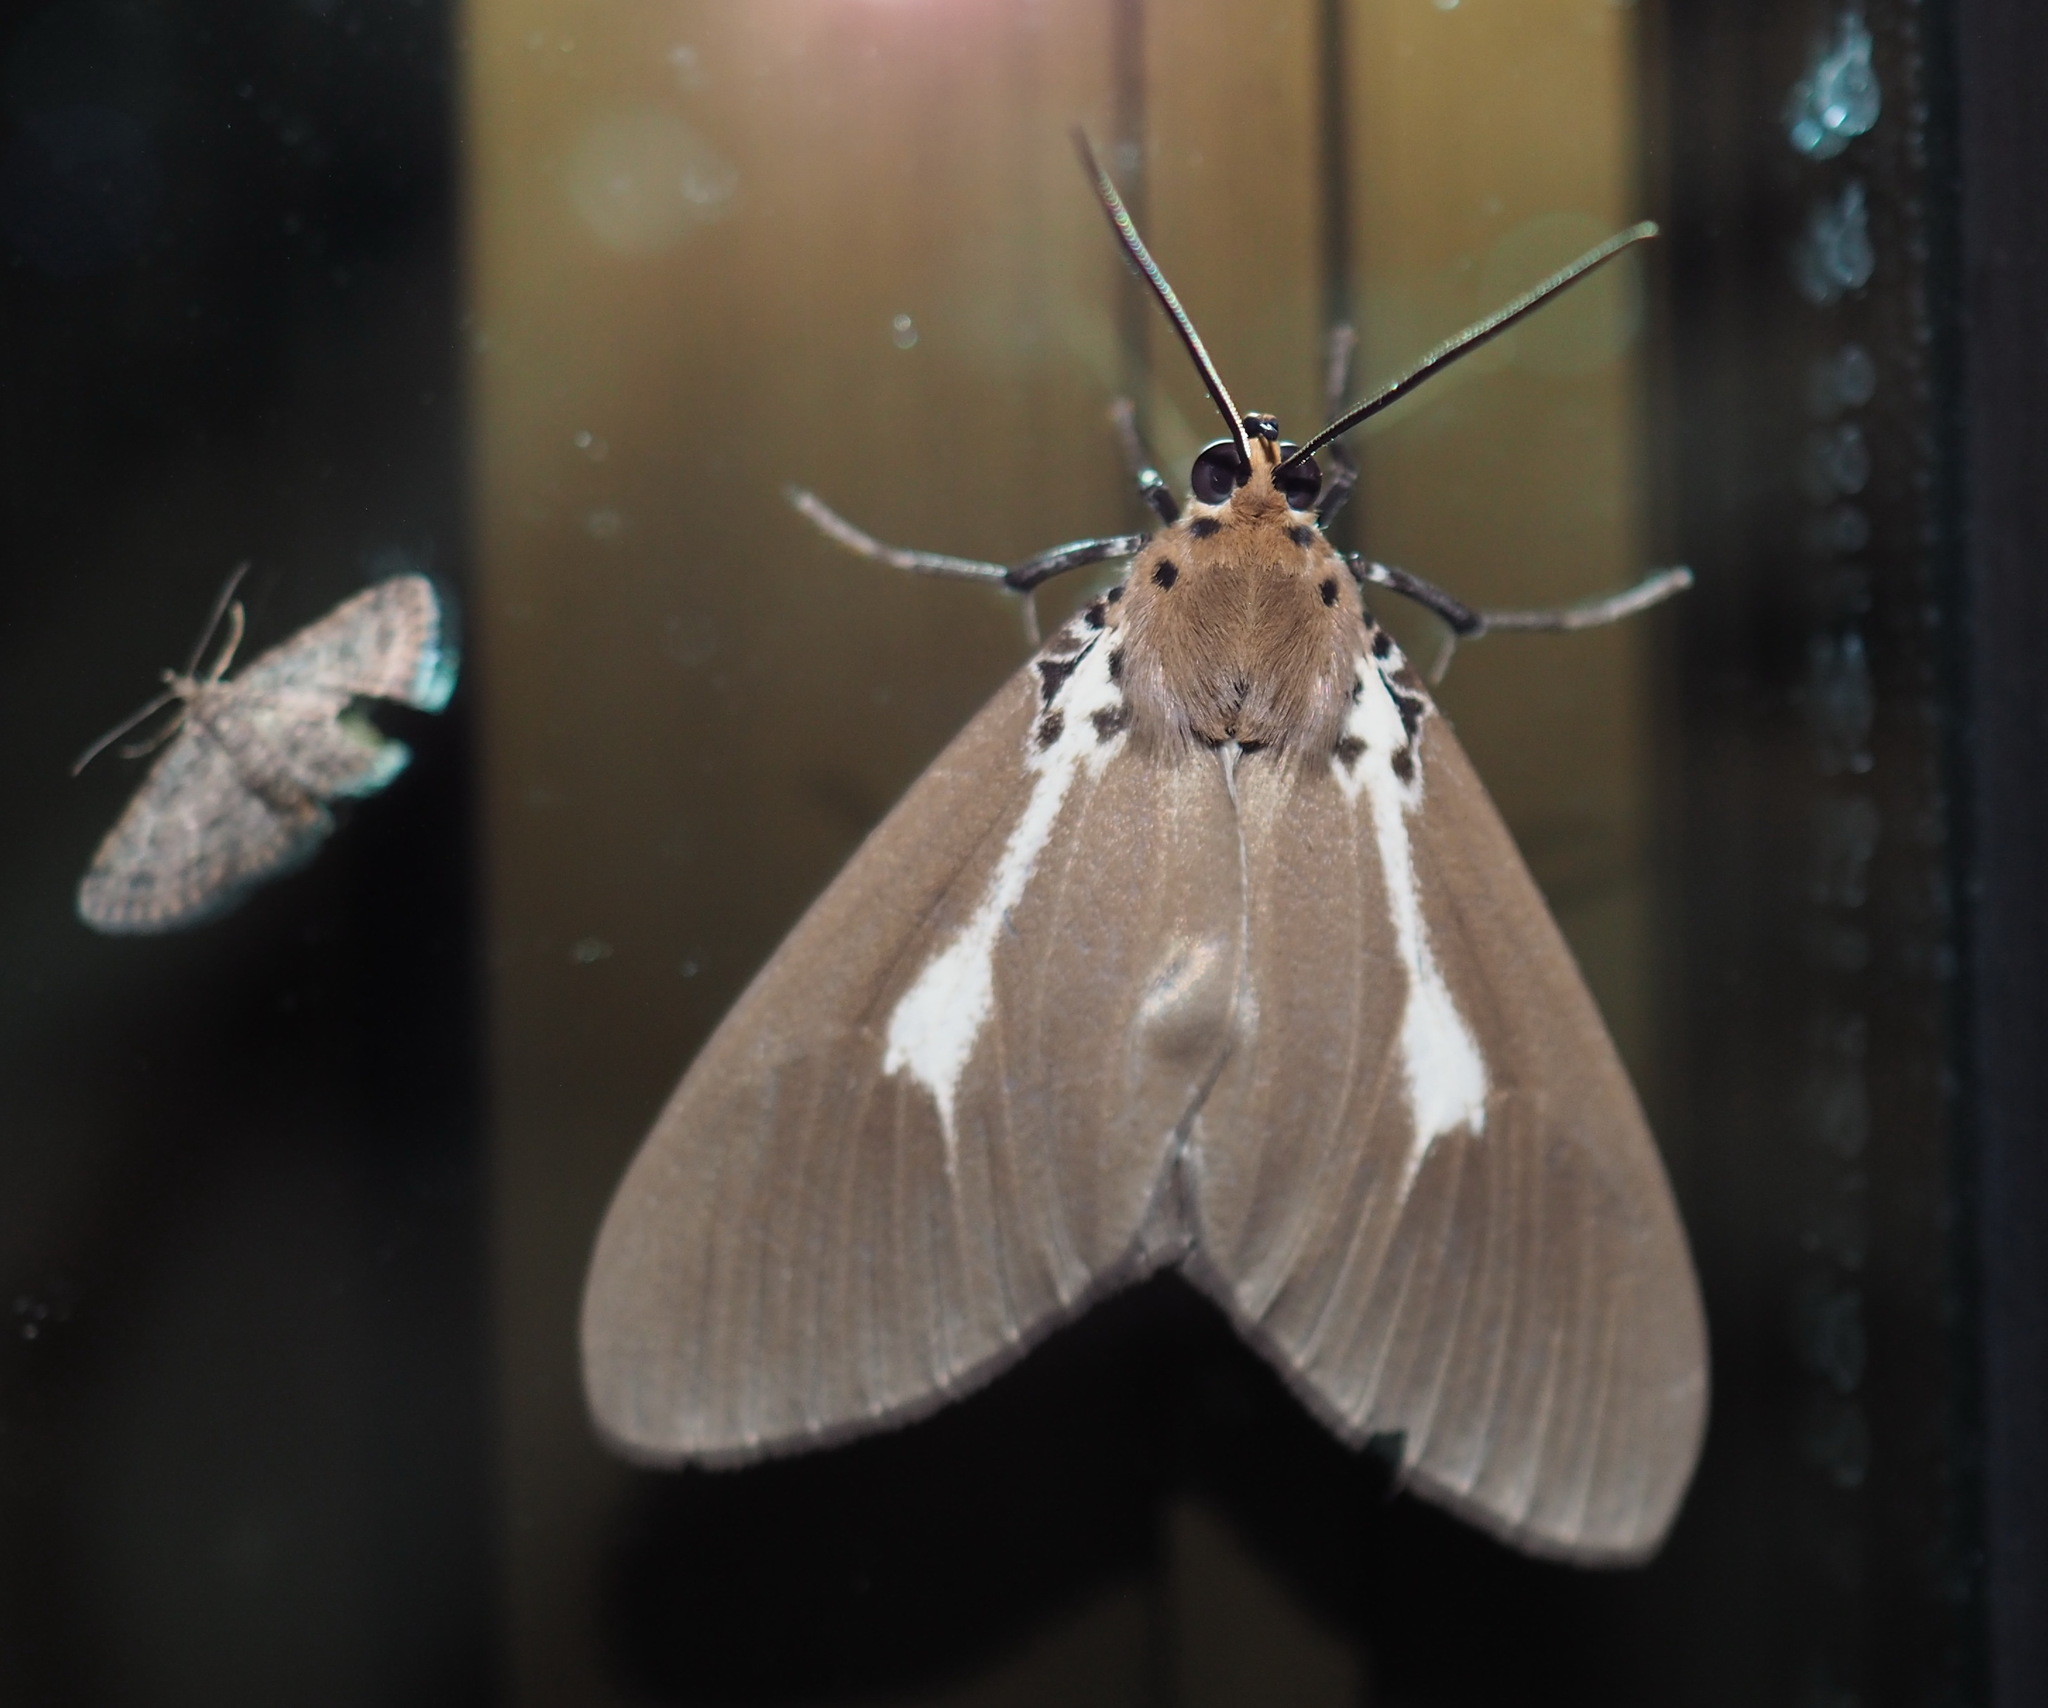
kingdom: Animalia
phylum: Arthropoda
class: Insecta
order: Lepidoptera
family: Erebidae
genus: Asota
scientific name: Asota heliconia
